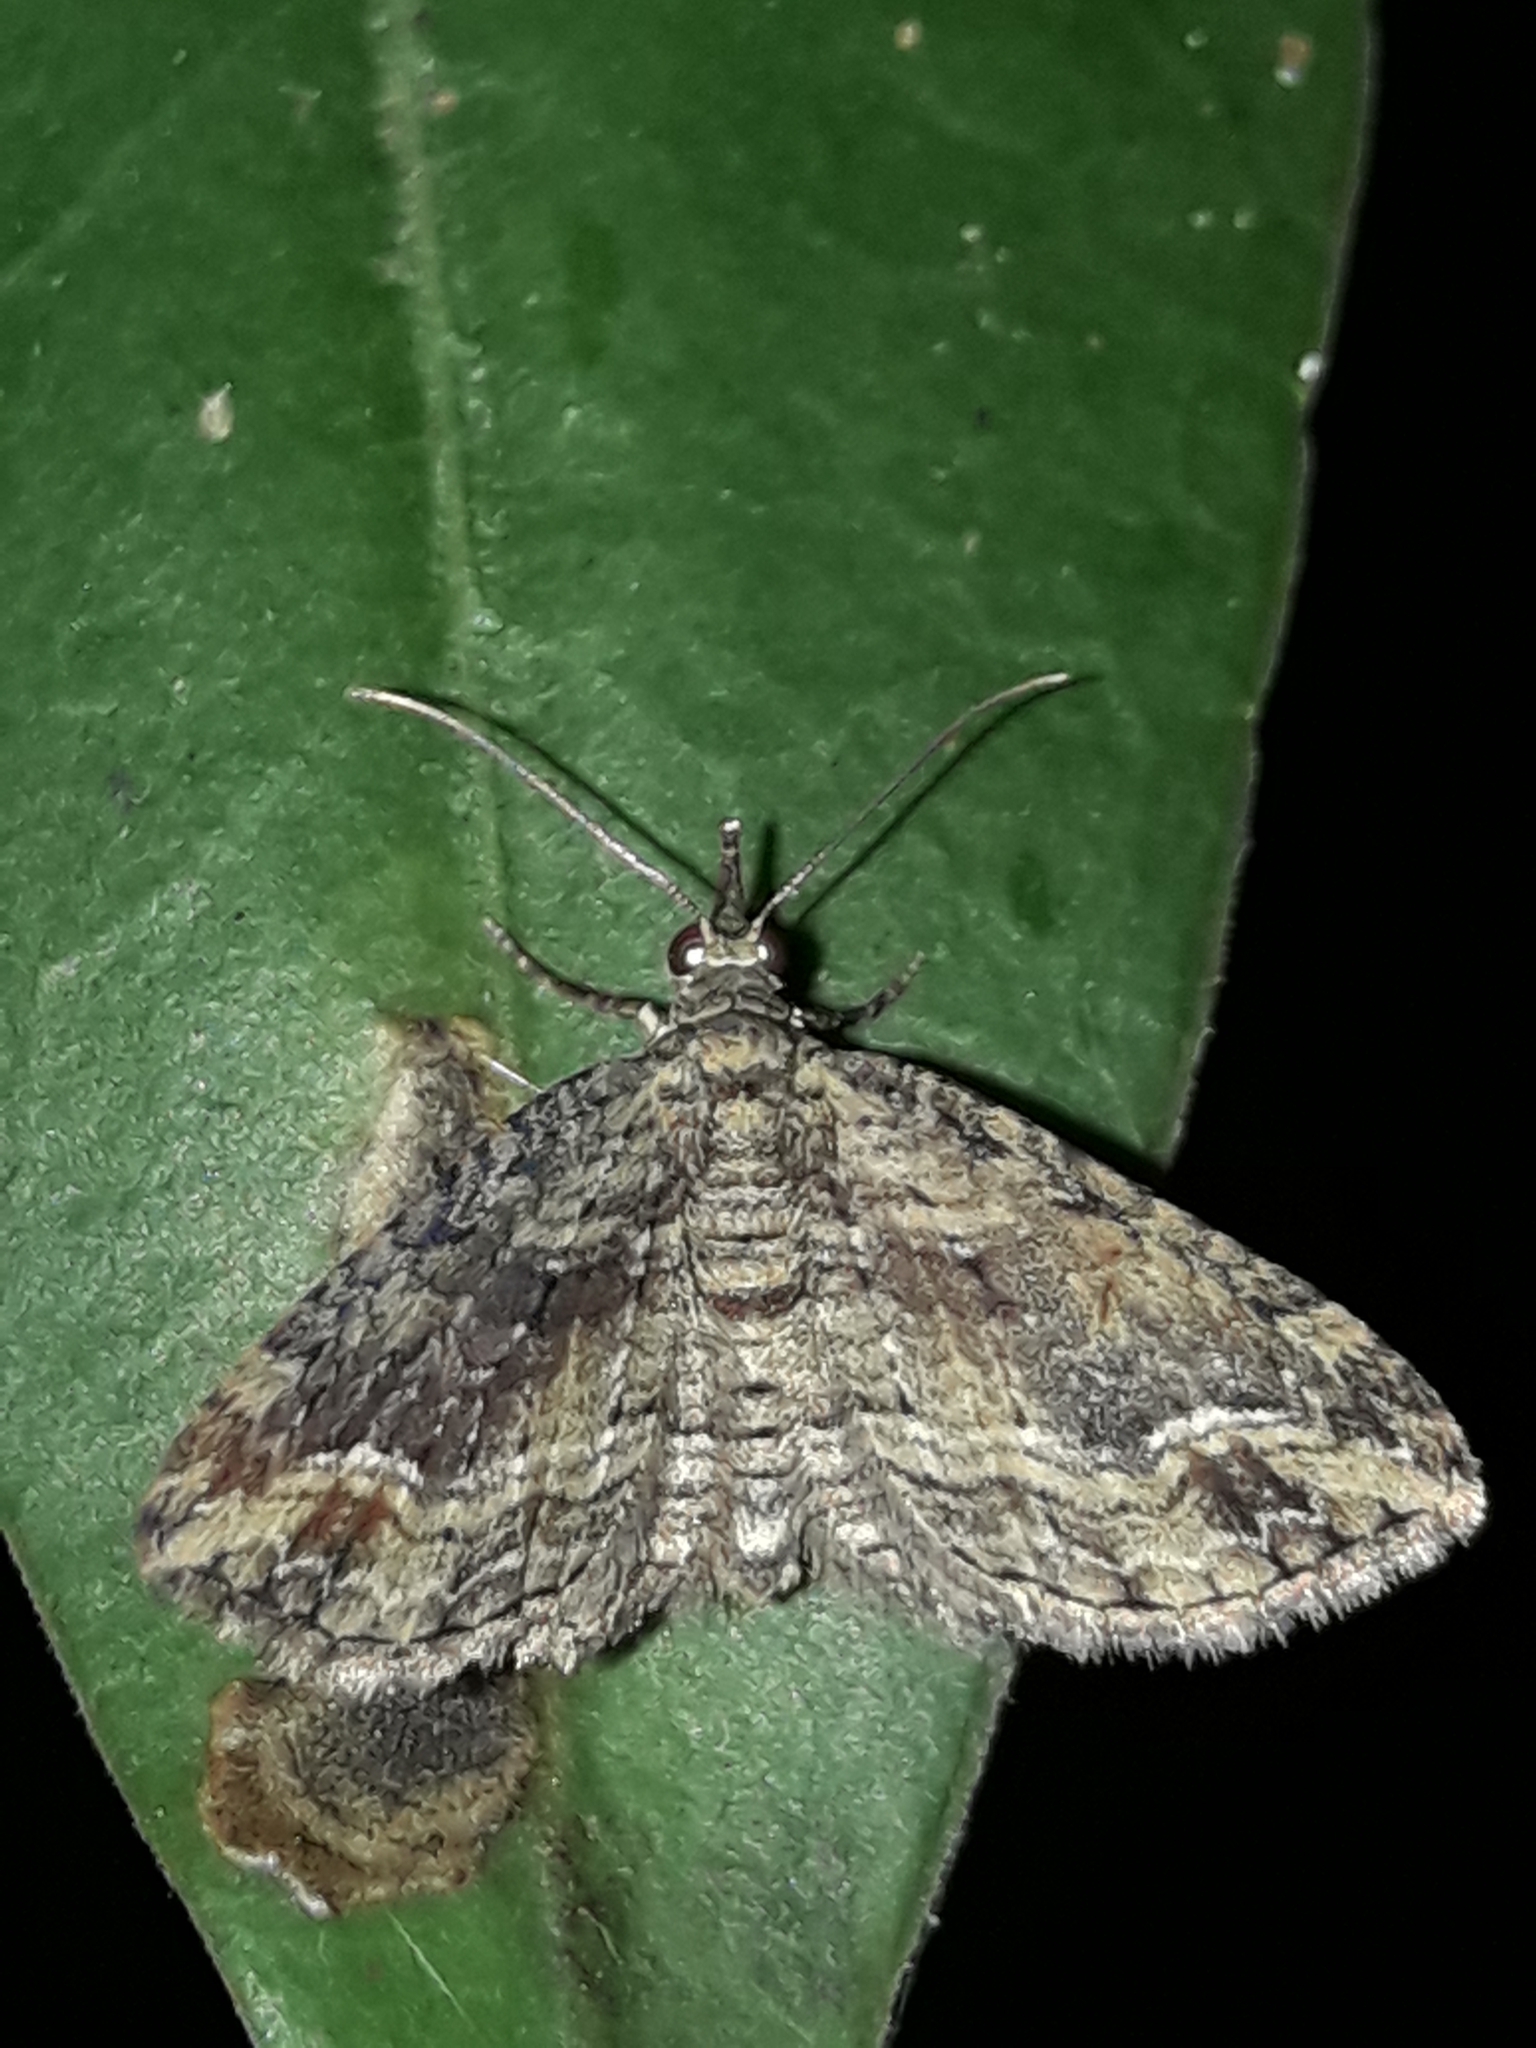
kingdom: Animalia
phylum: Arthropoda
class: Insecta
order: Lepidoptera
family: Geometridae
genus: Chloroclystis
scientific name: Chloroclystis filata
